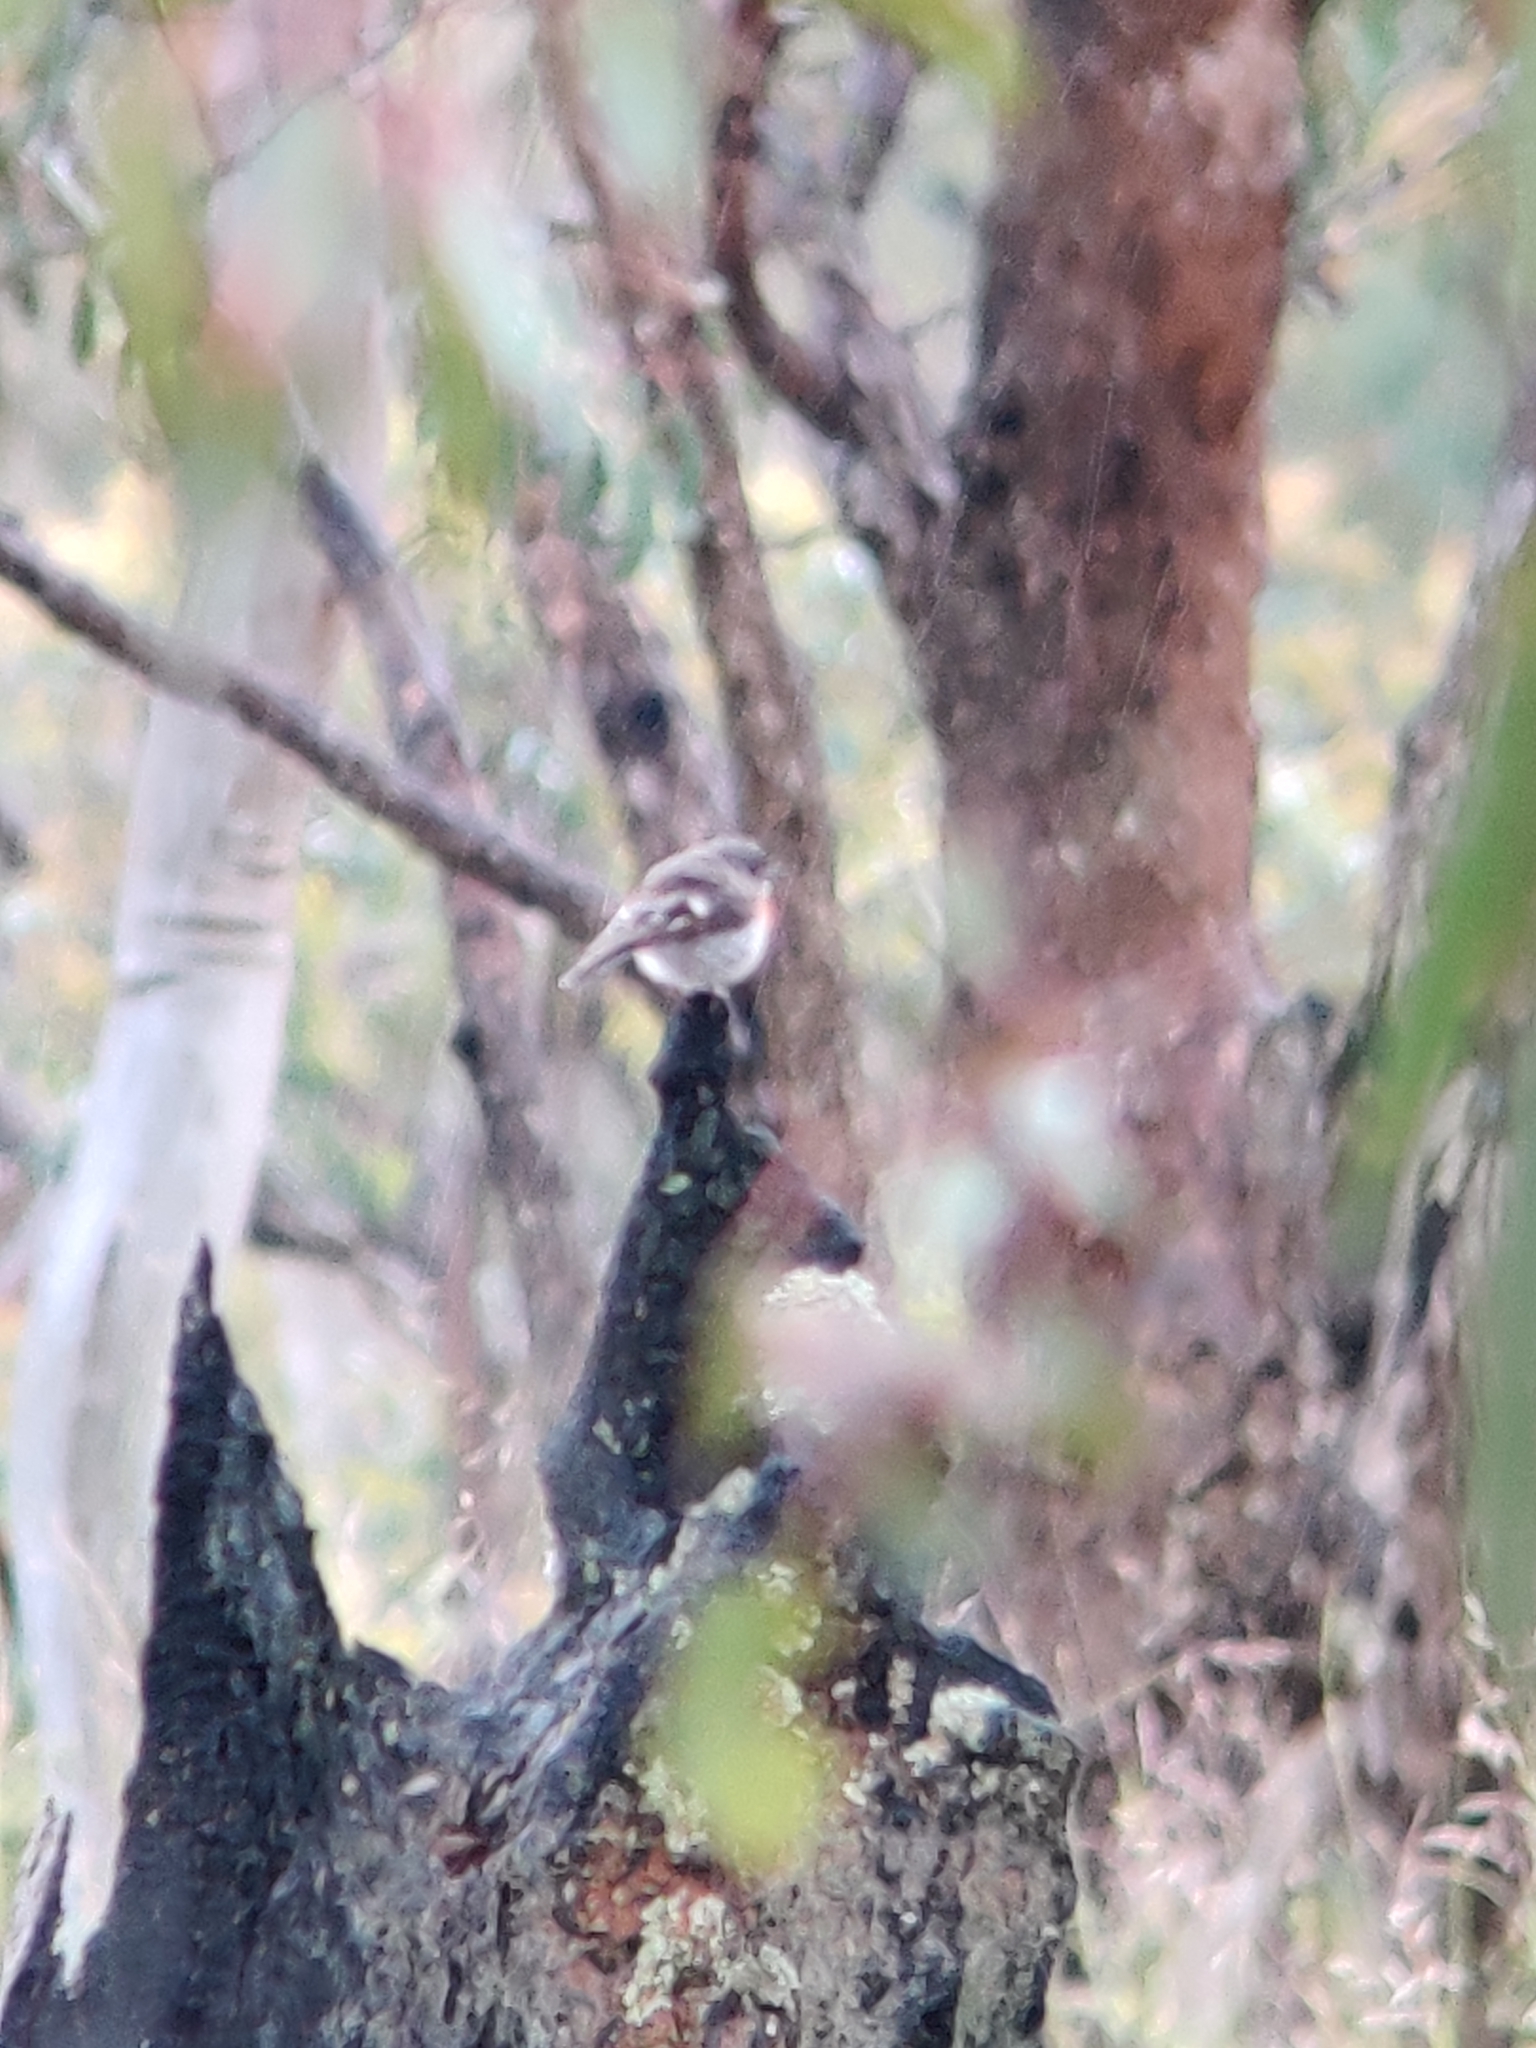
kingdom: Animalia
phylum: Chordata
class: Aves
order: Passeriformes
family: Petroicidae
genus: Petroica
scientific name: Petroica boodang
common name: Scarlet robin
